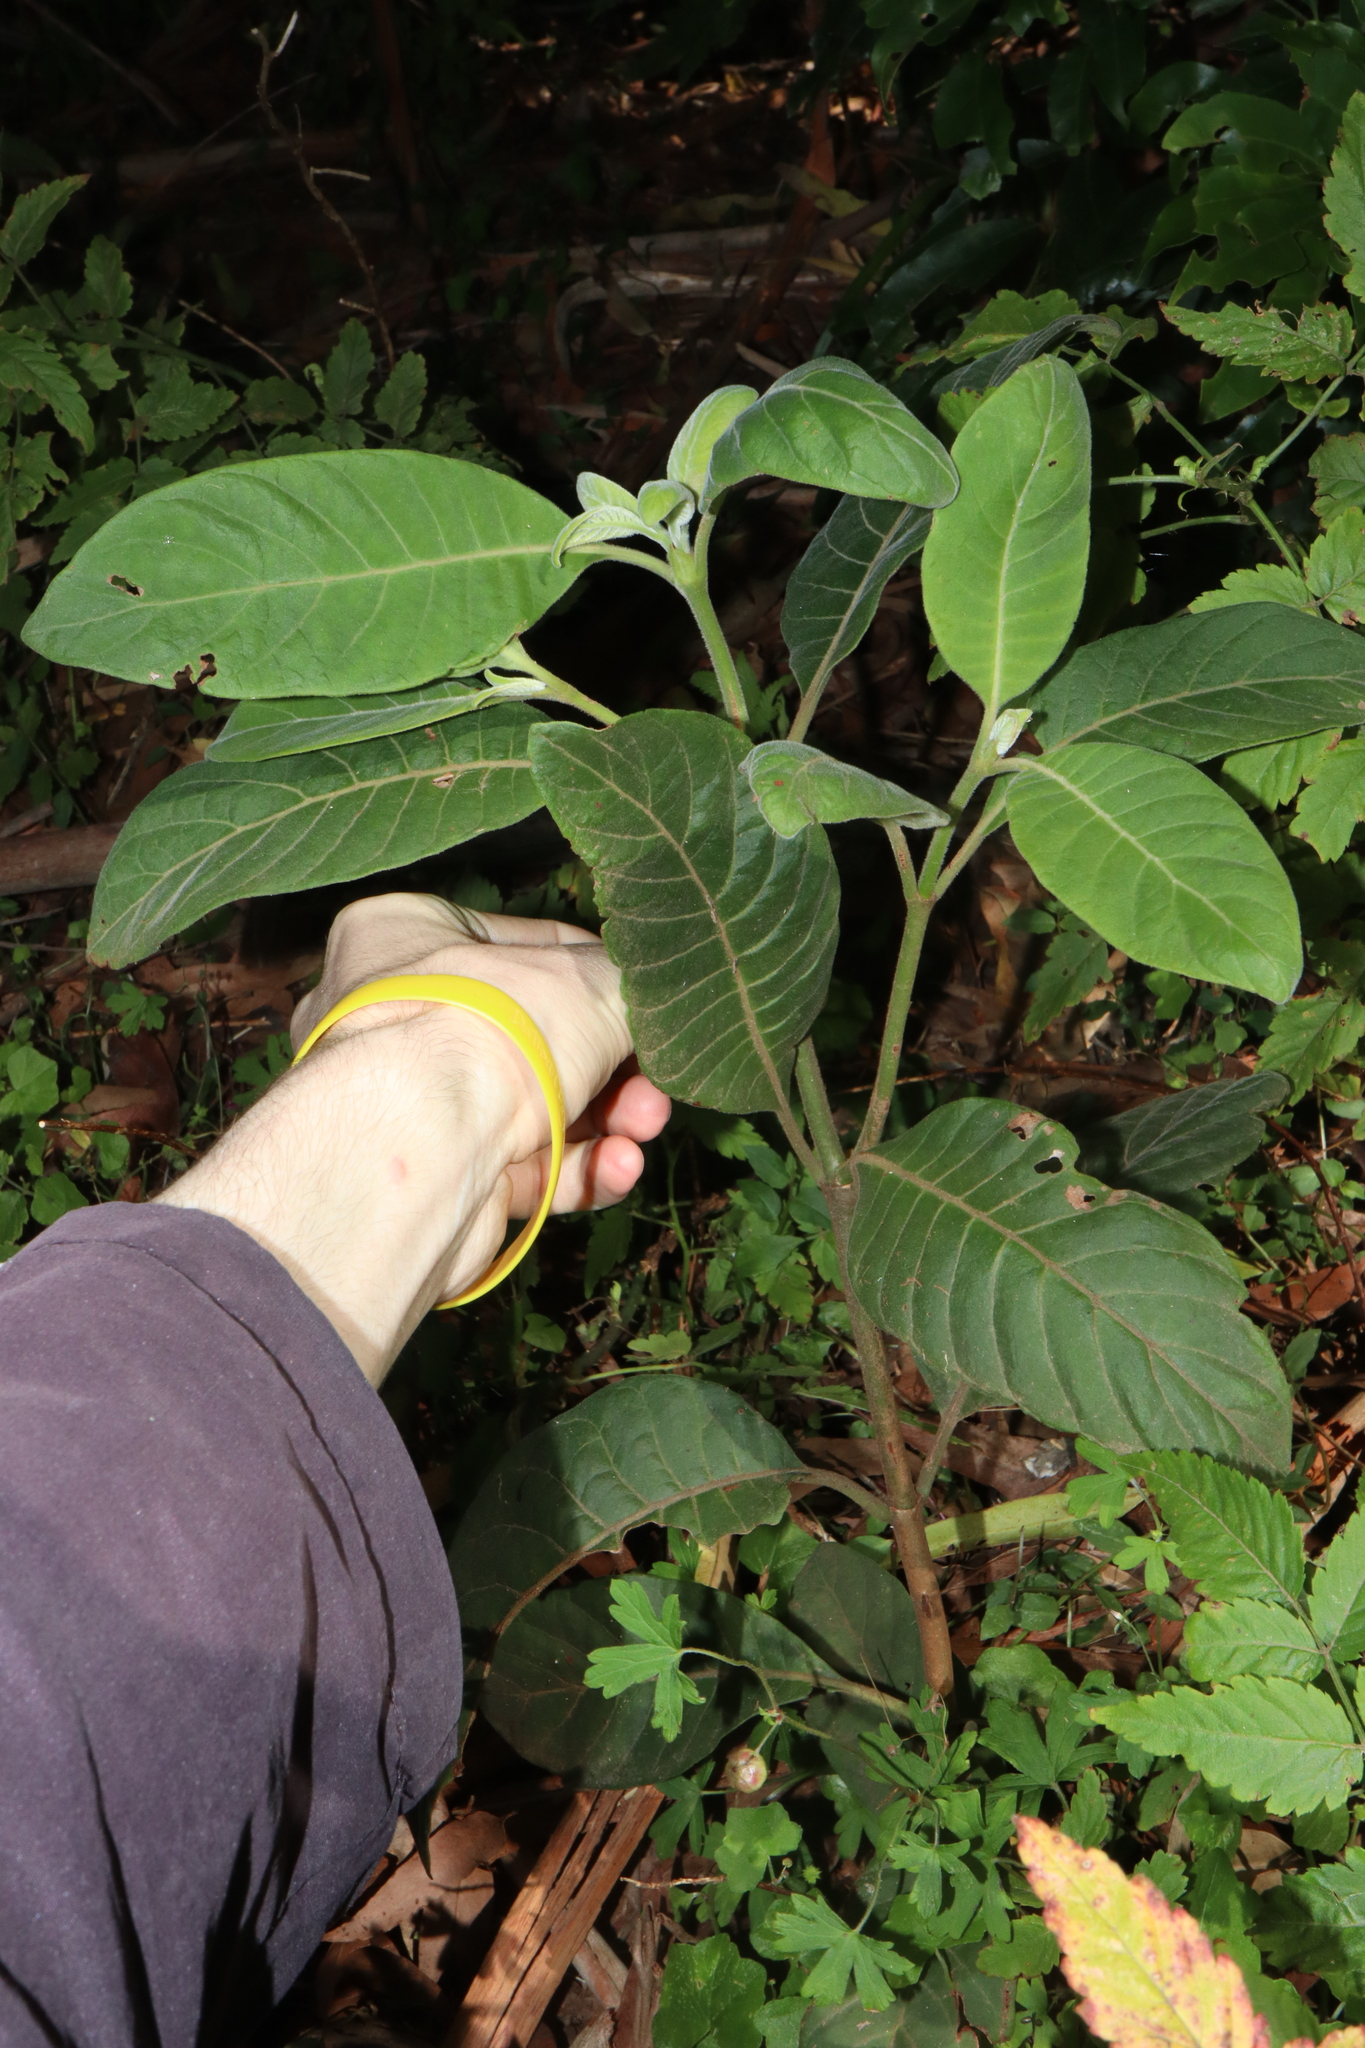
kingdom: Plantae
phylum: Tracheophyta
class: Magnoliopsida
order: Gentianales
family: Rubiaceae
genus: Psychotria
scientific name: Psychotria loniceroides
